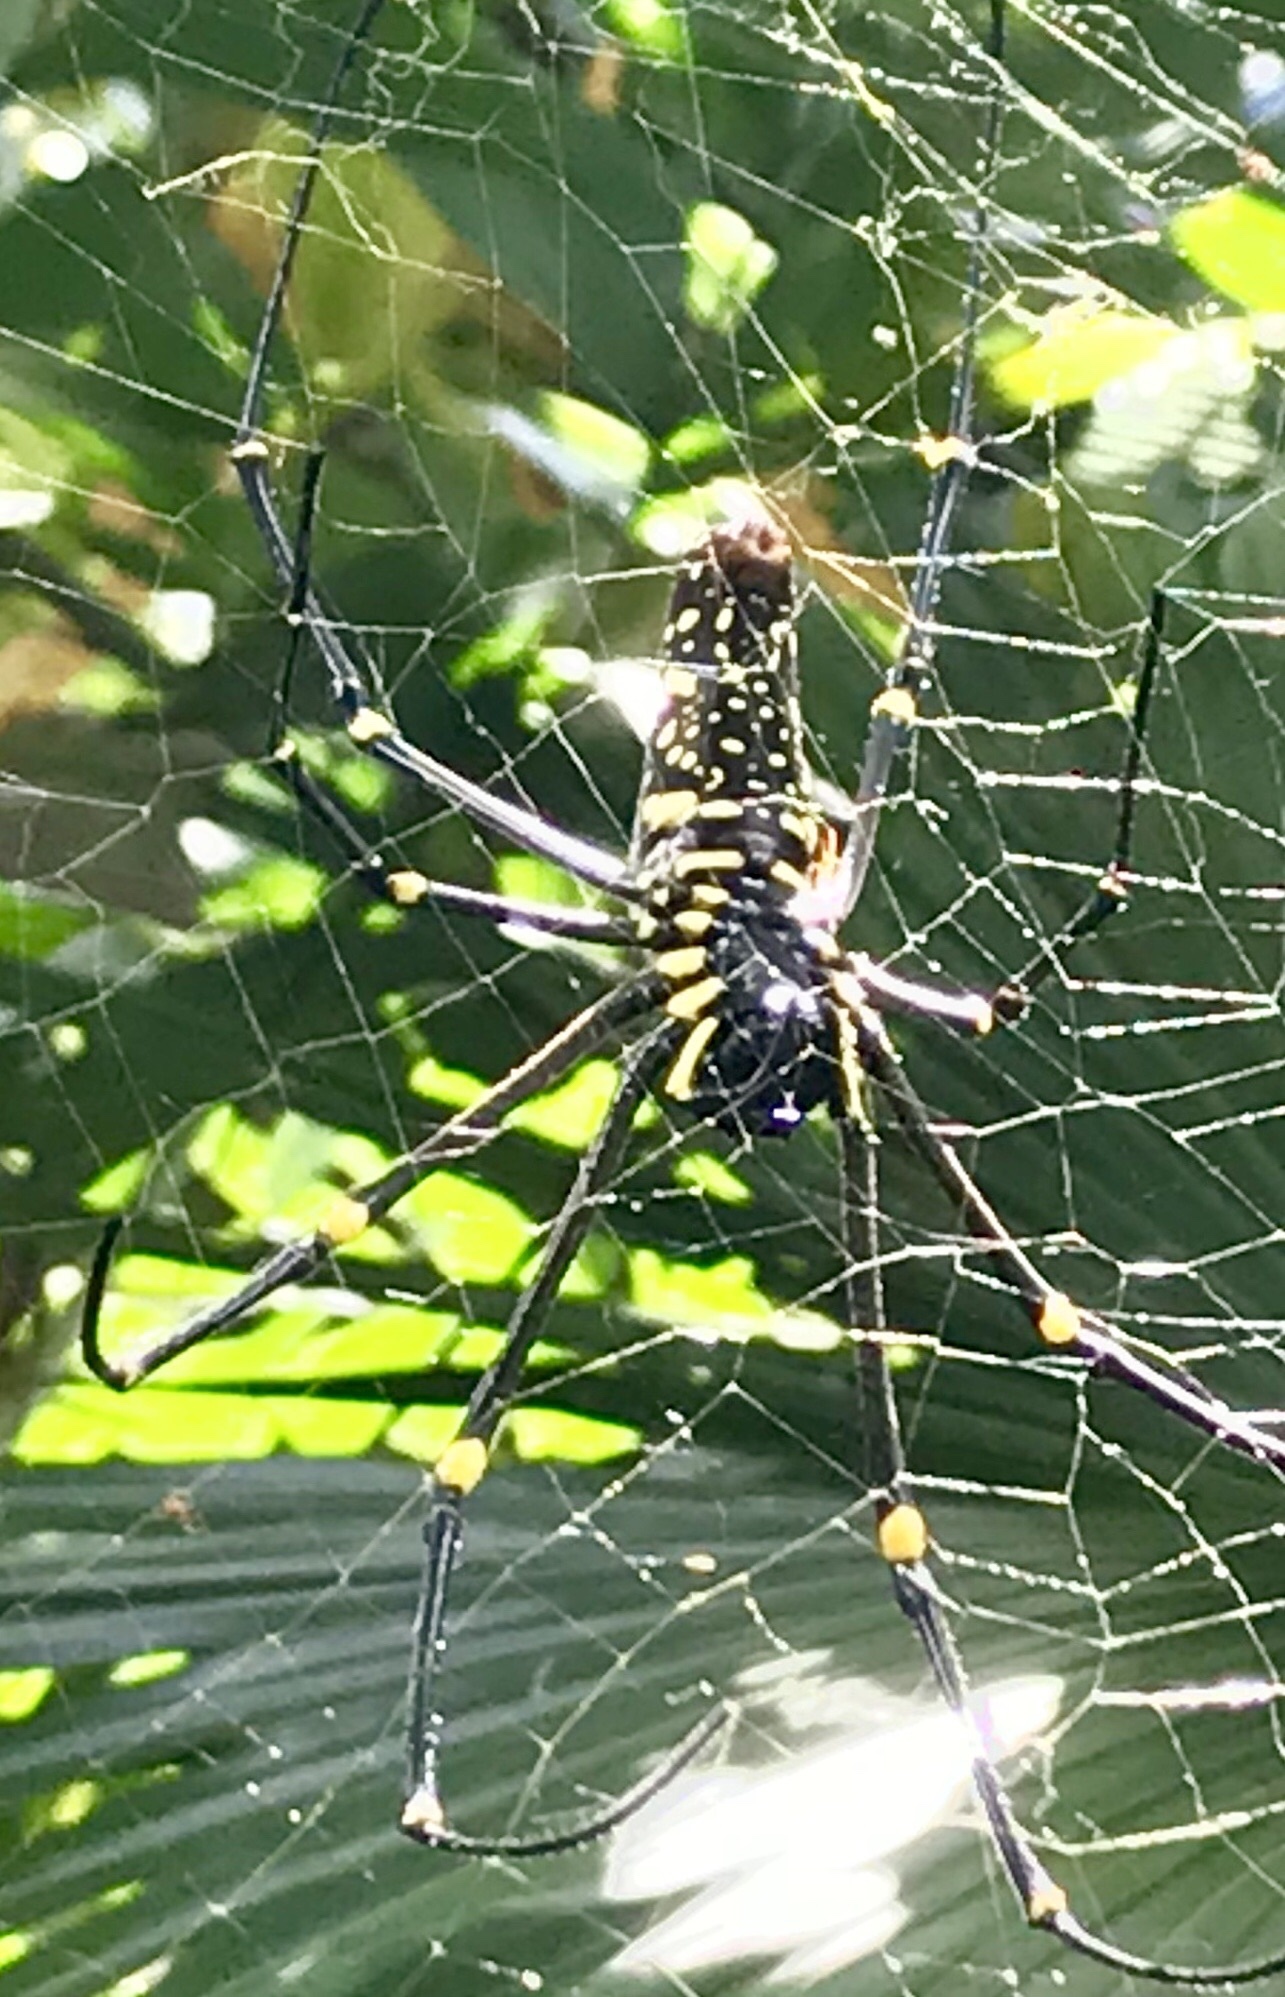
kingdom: Animalia
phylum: Arthropoda
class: Arachnida
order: Araneae
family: Araneidae
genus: Nephila
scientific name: Nephila pilipes
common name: Giant golden orb weaver
